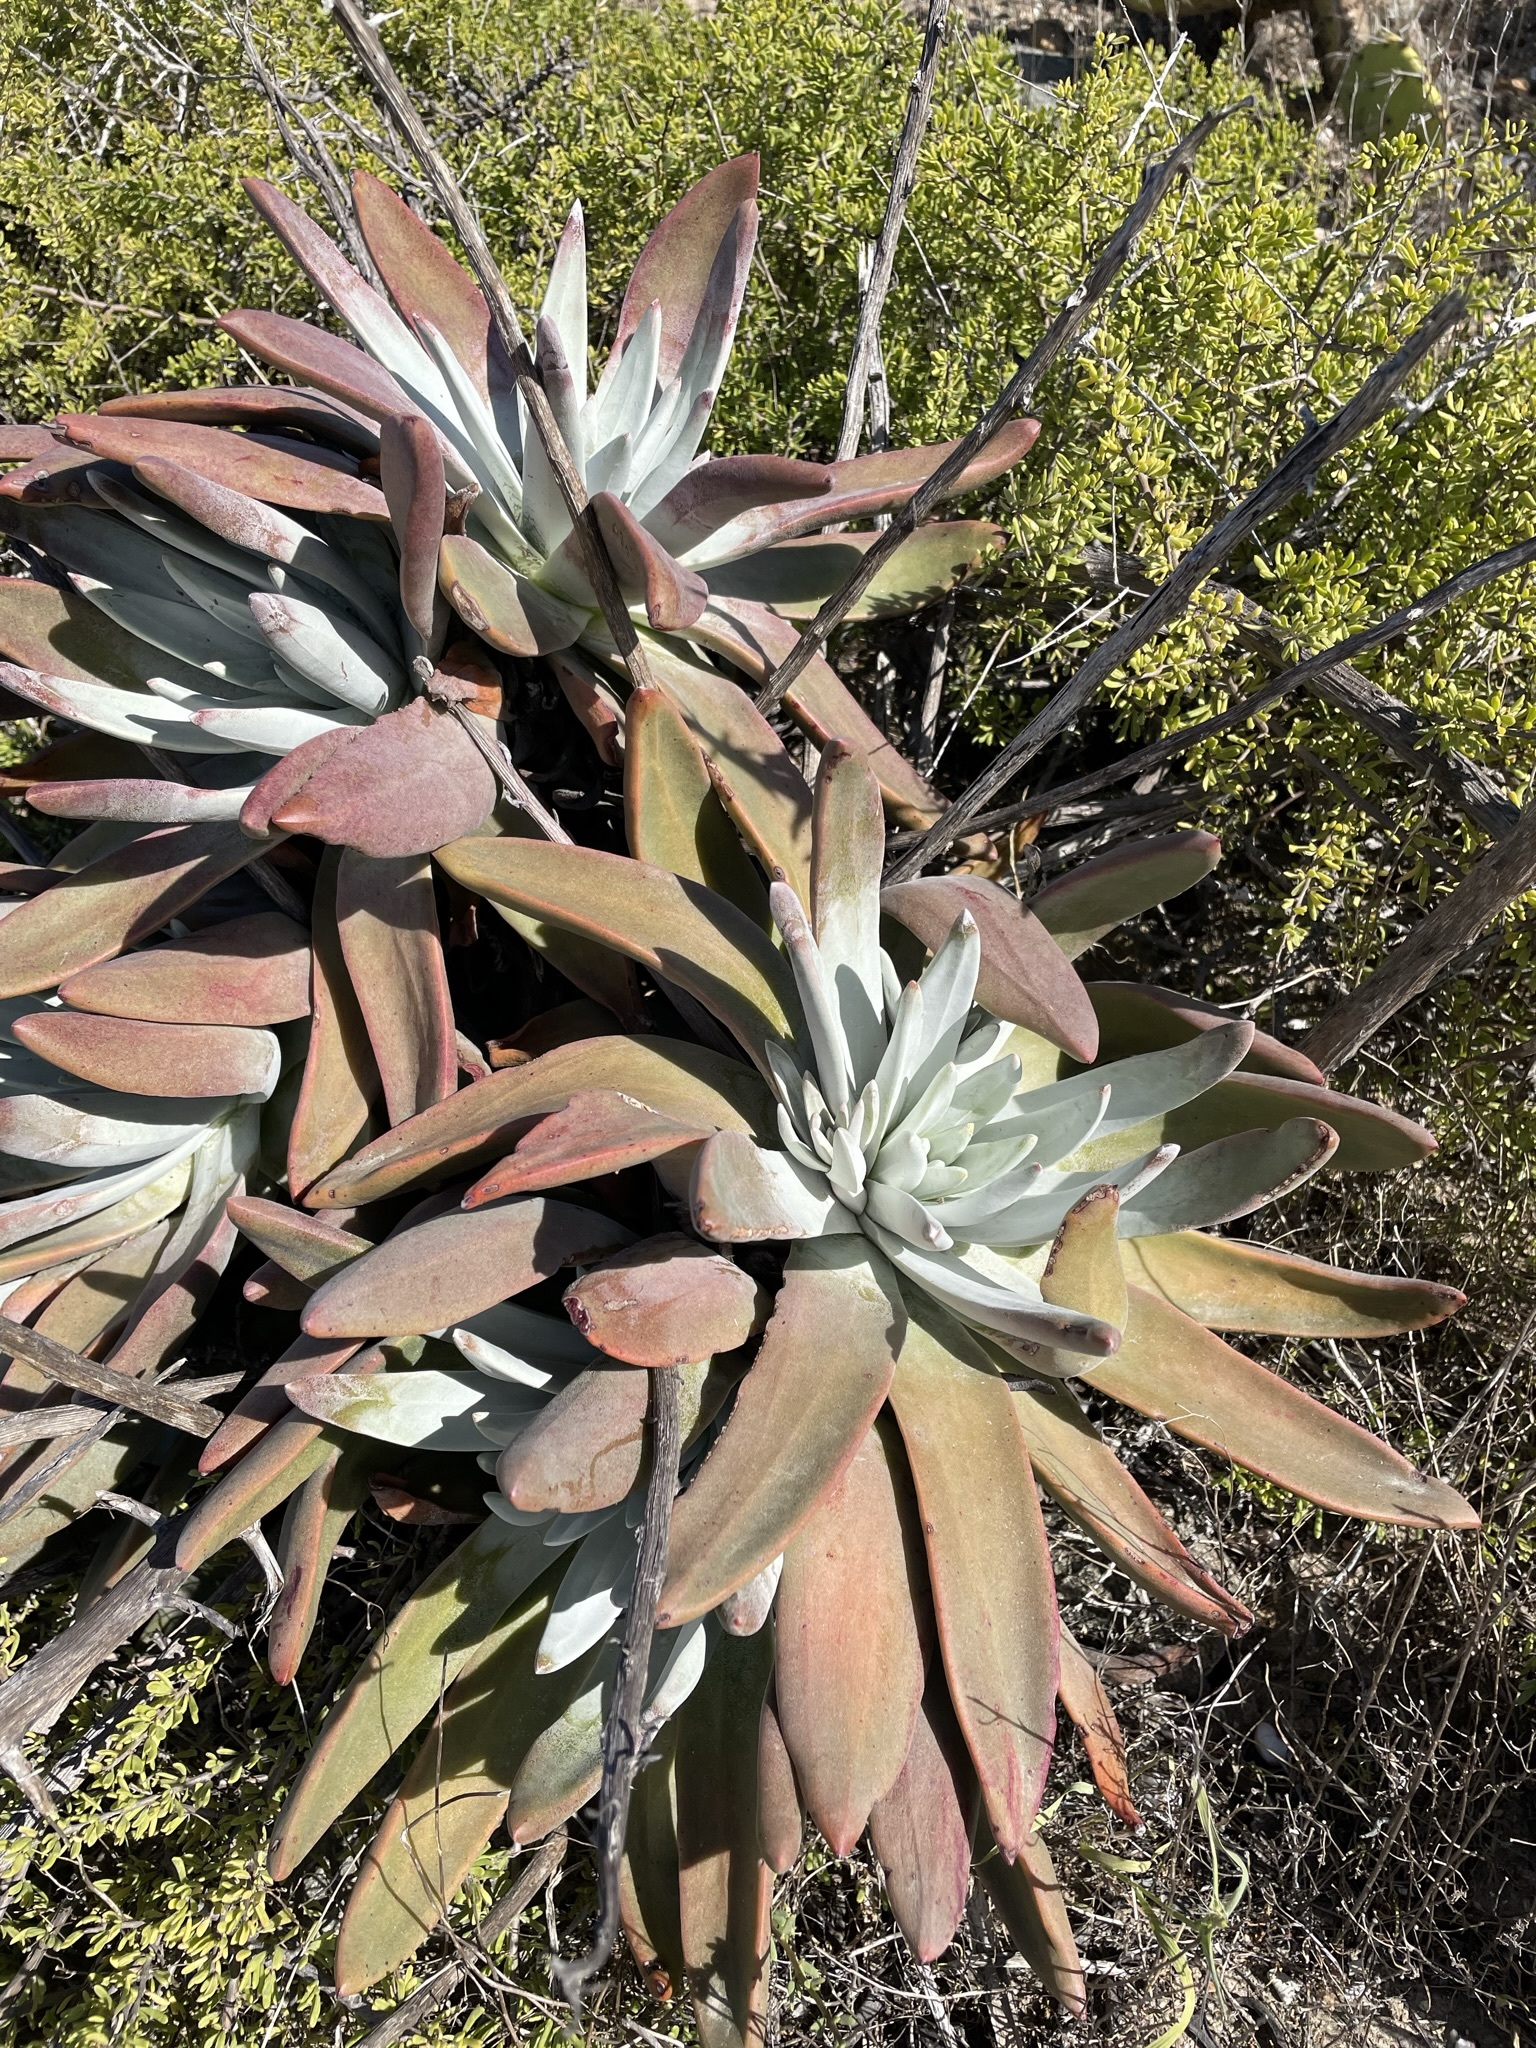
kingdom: Plantae
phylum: Tracheophyta
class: Magnoliopsida
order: Saxifragales
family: Crassulaceae
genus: Dudleya
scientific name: Dudleya virens
